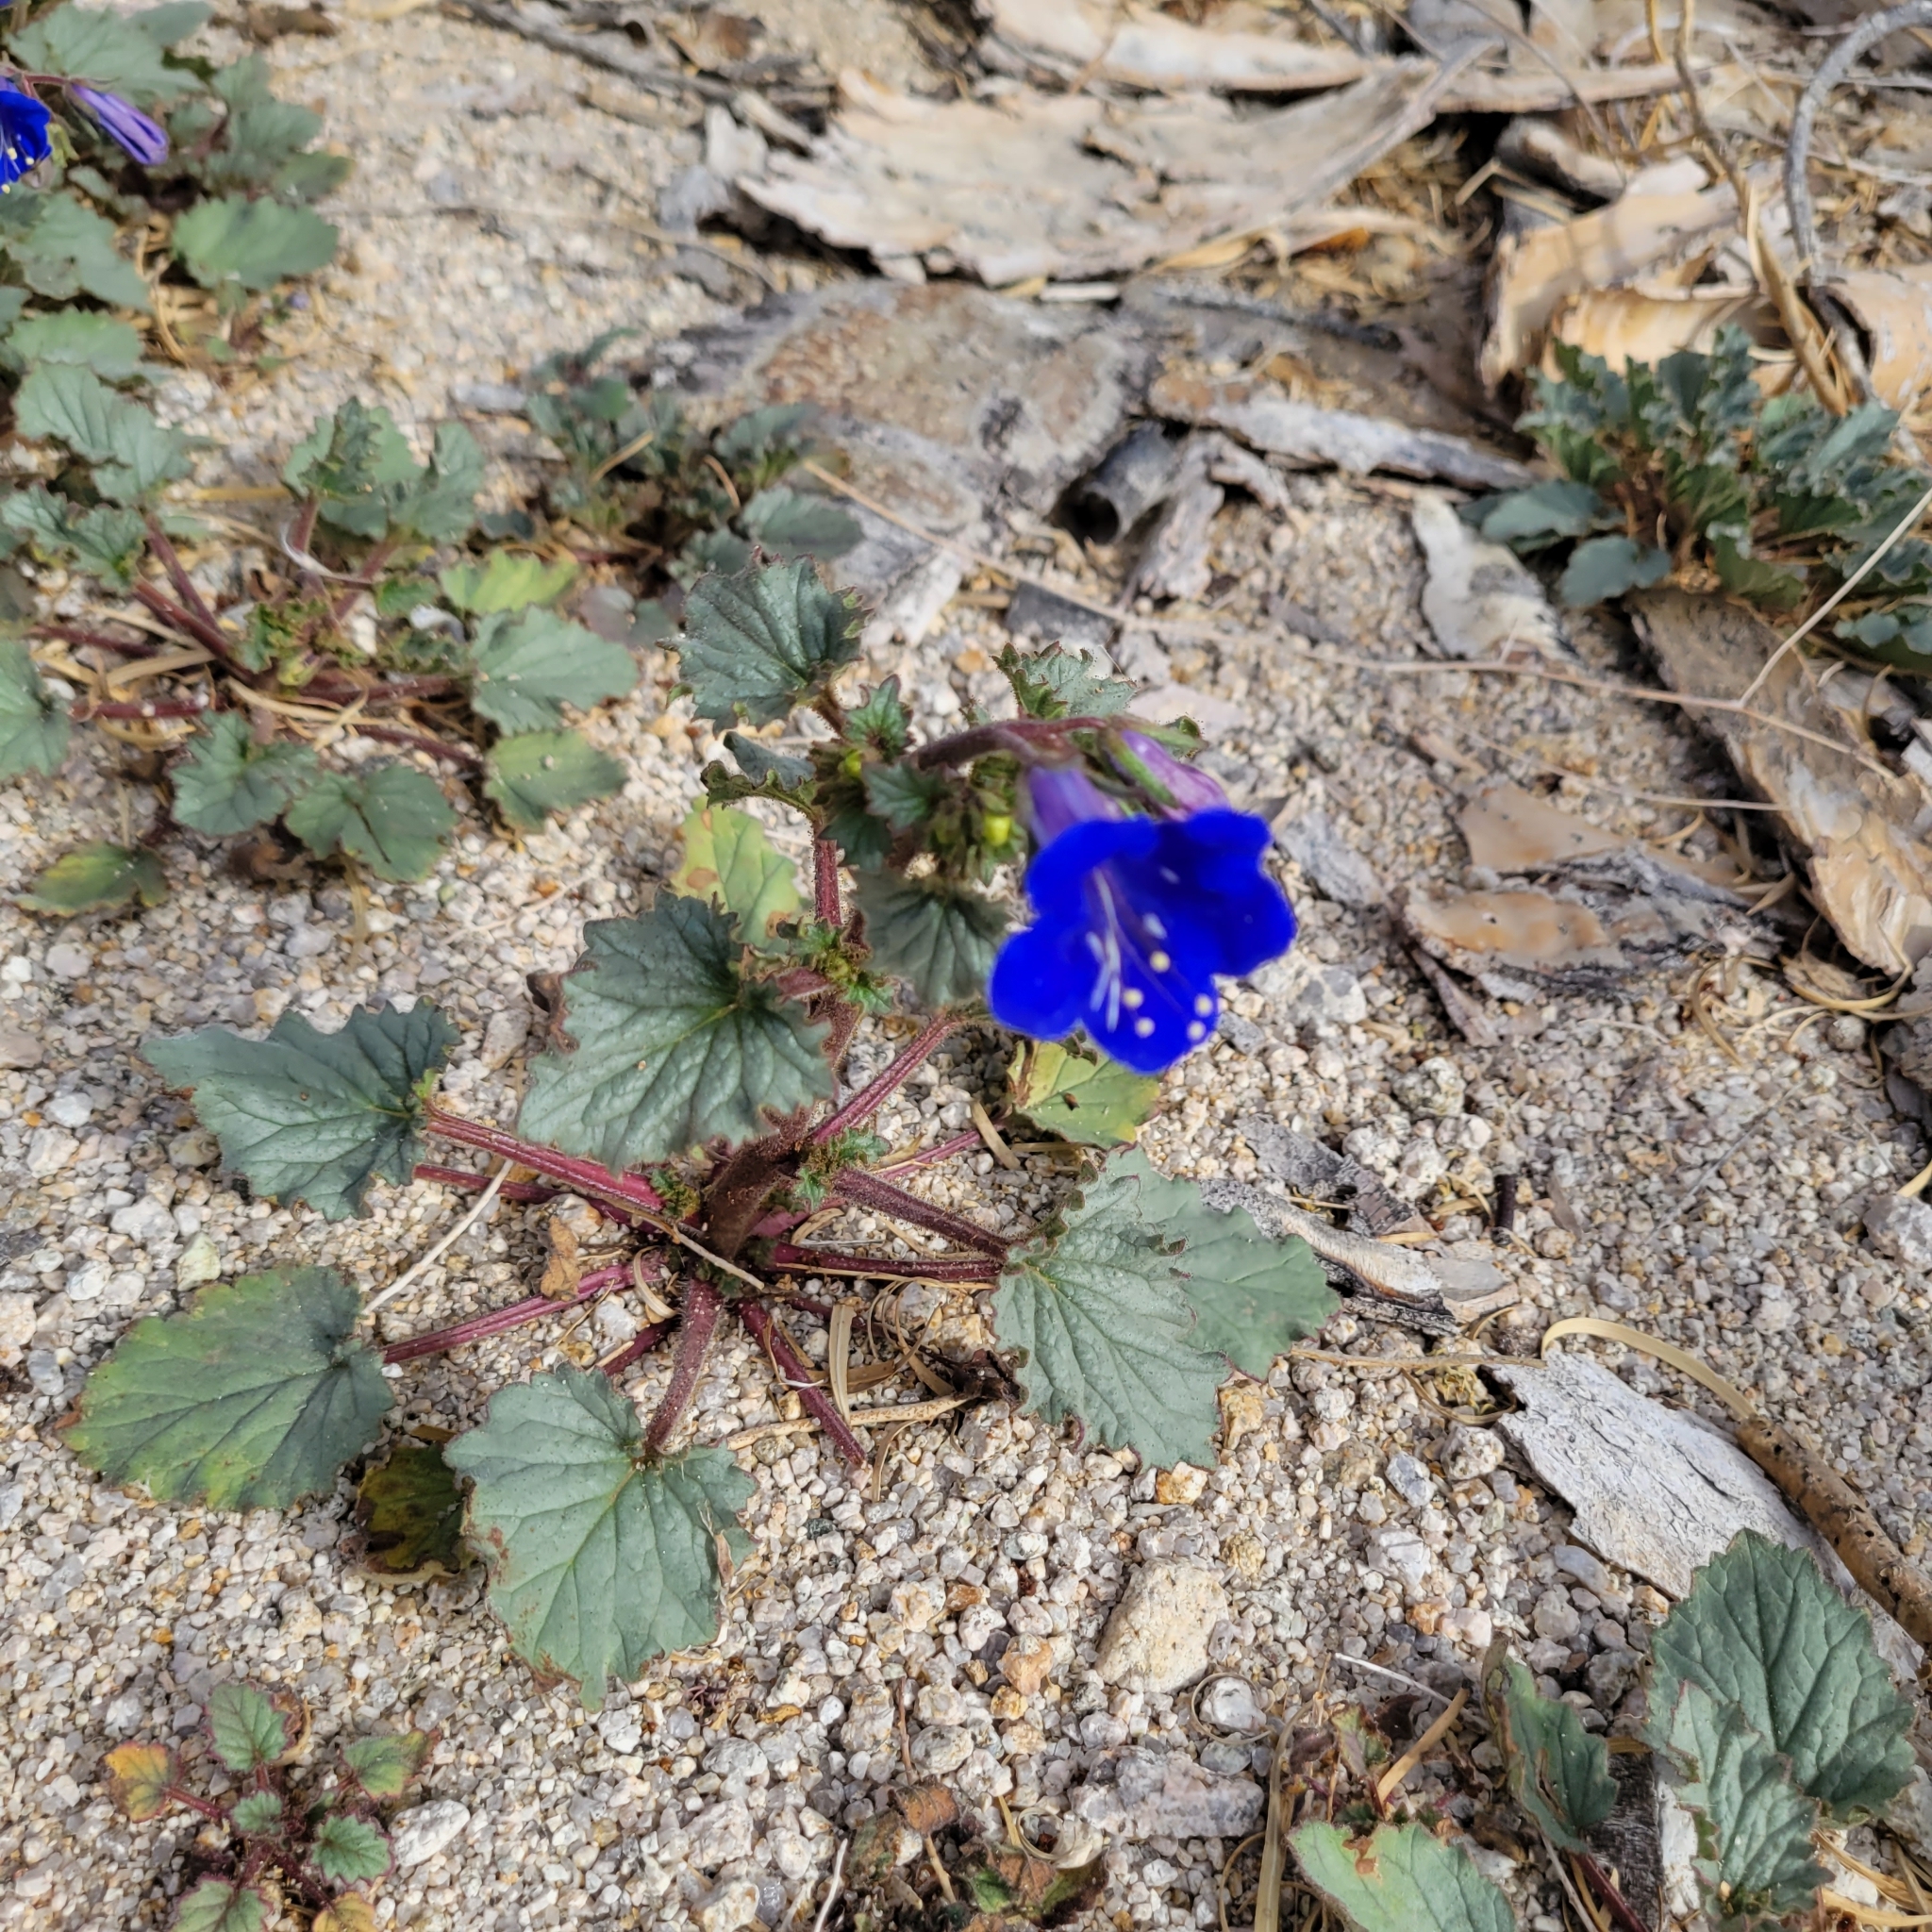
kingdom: Plantae
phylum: Tracheophyta
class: Magnoliopsida
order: Boraginales
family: Hydrophyllaceae
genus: Phacelia
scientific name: Phacelia campanularia
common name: California bluebell
